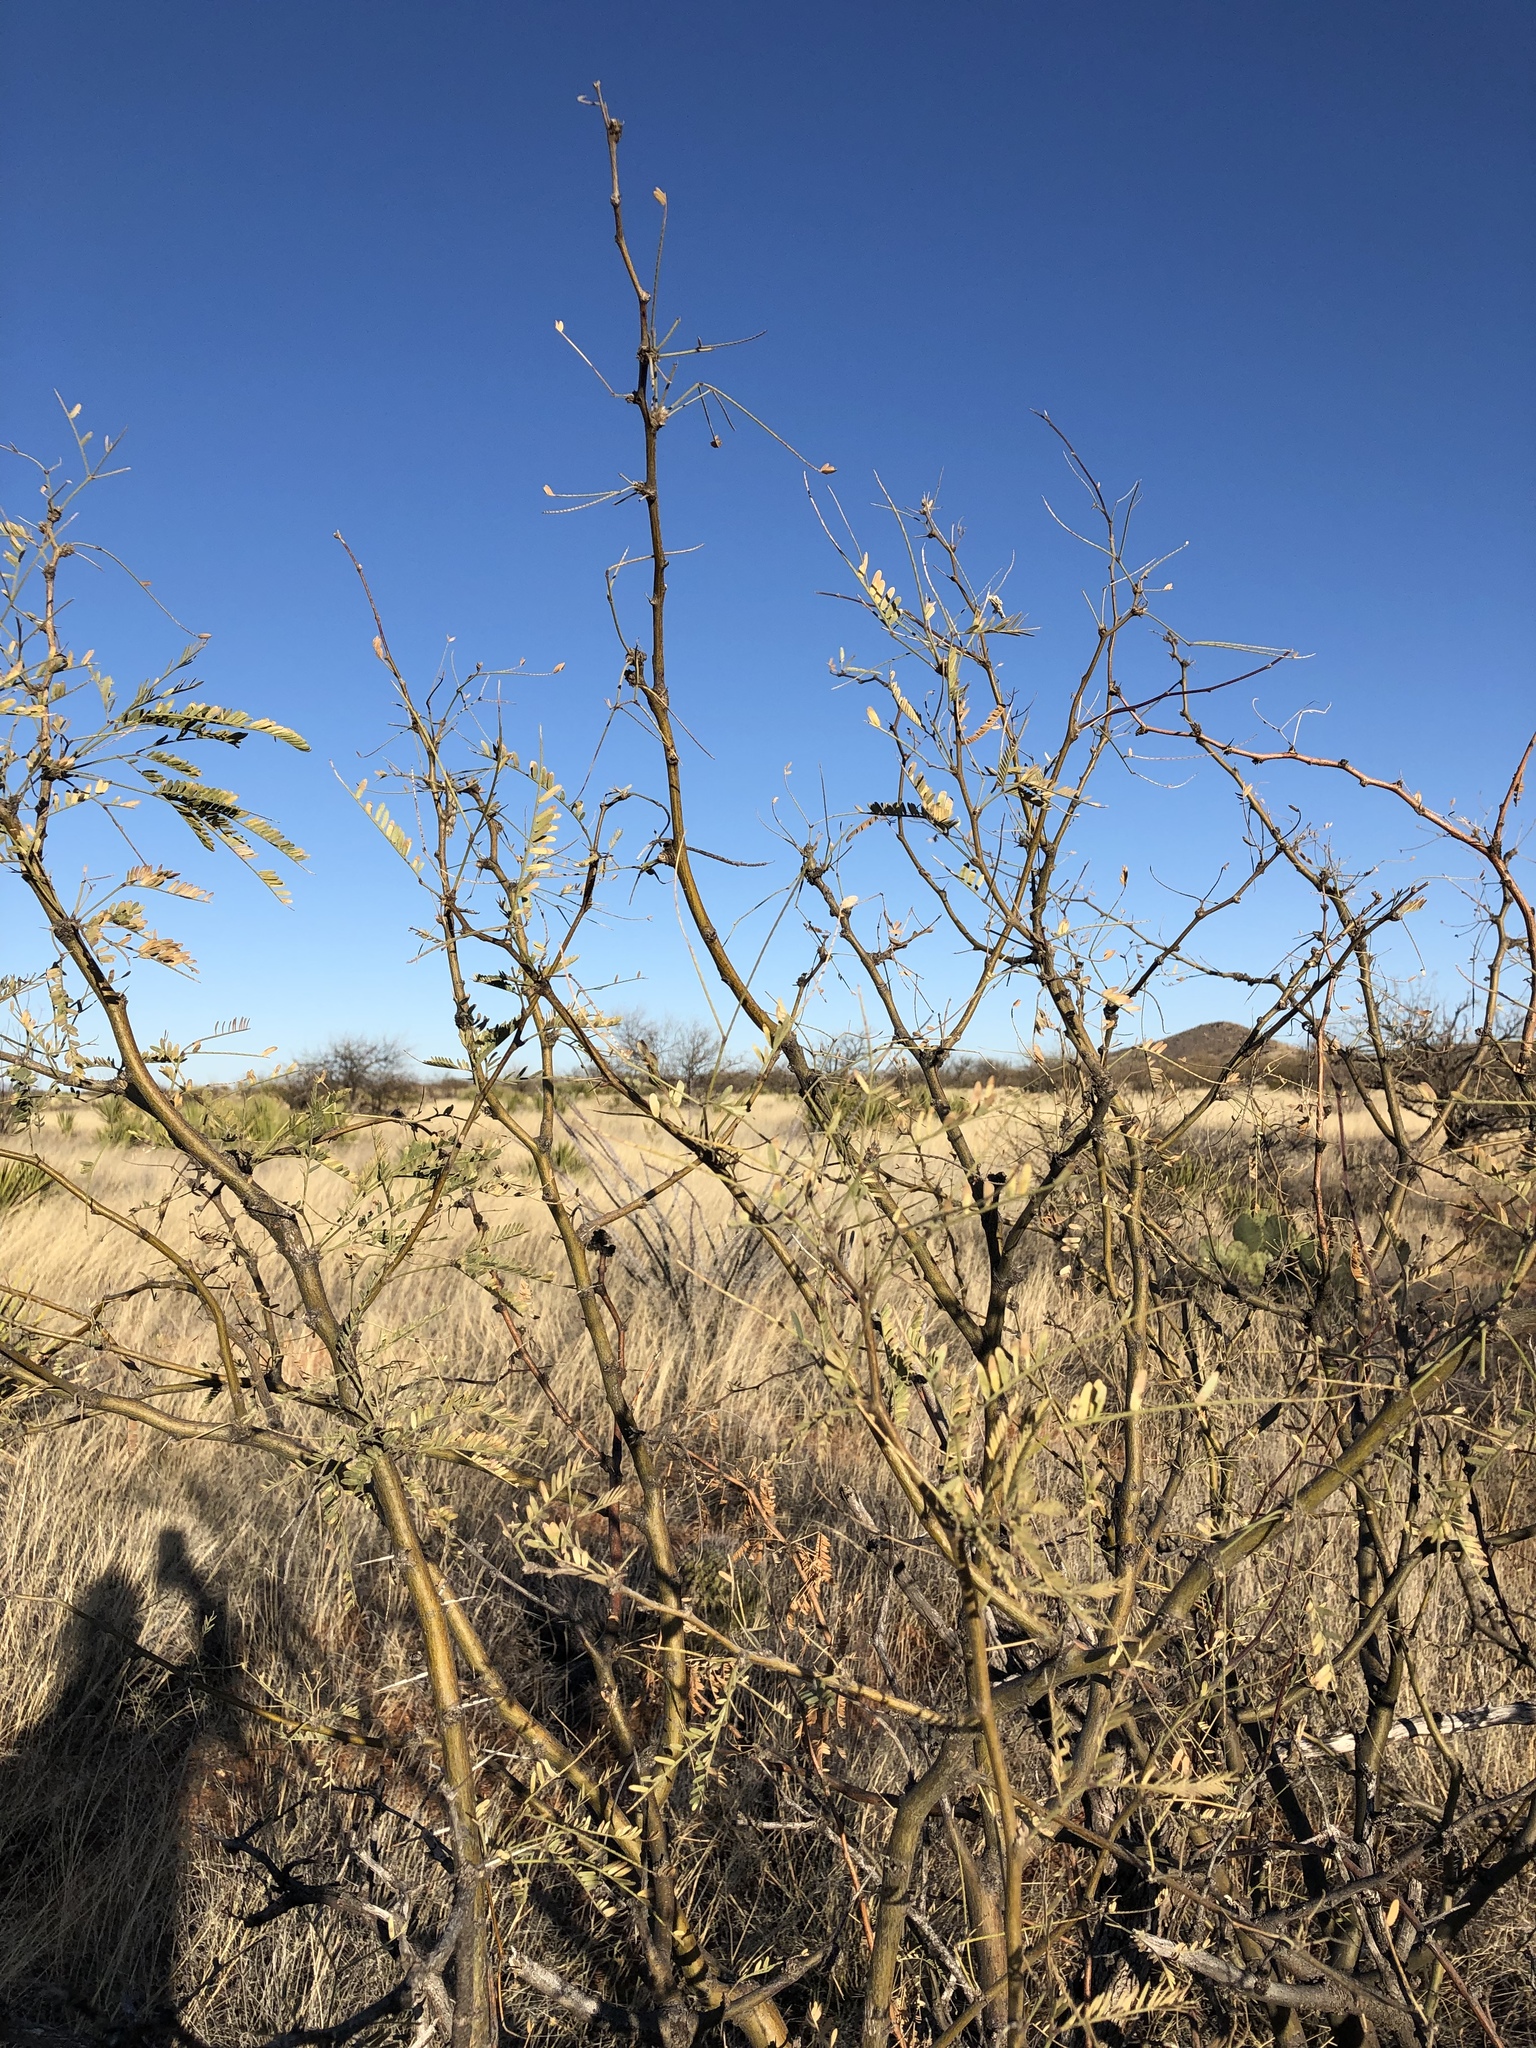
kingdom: Plantae
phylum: Tracheophyta
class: Magnoliopsida
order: Fabales
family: Fabaceae
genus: Prosopis
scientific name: Prosopis velutina
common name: Velvet mesquite
